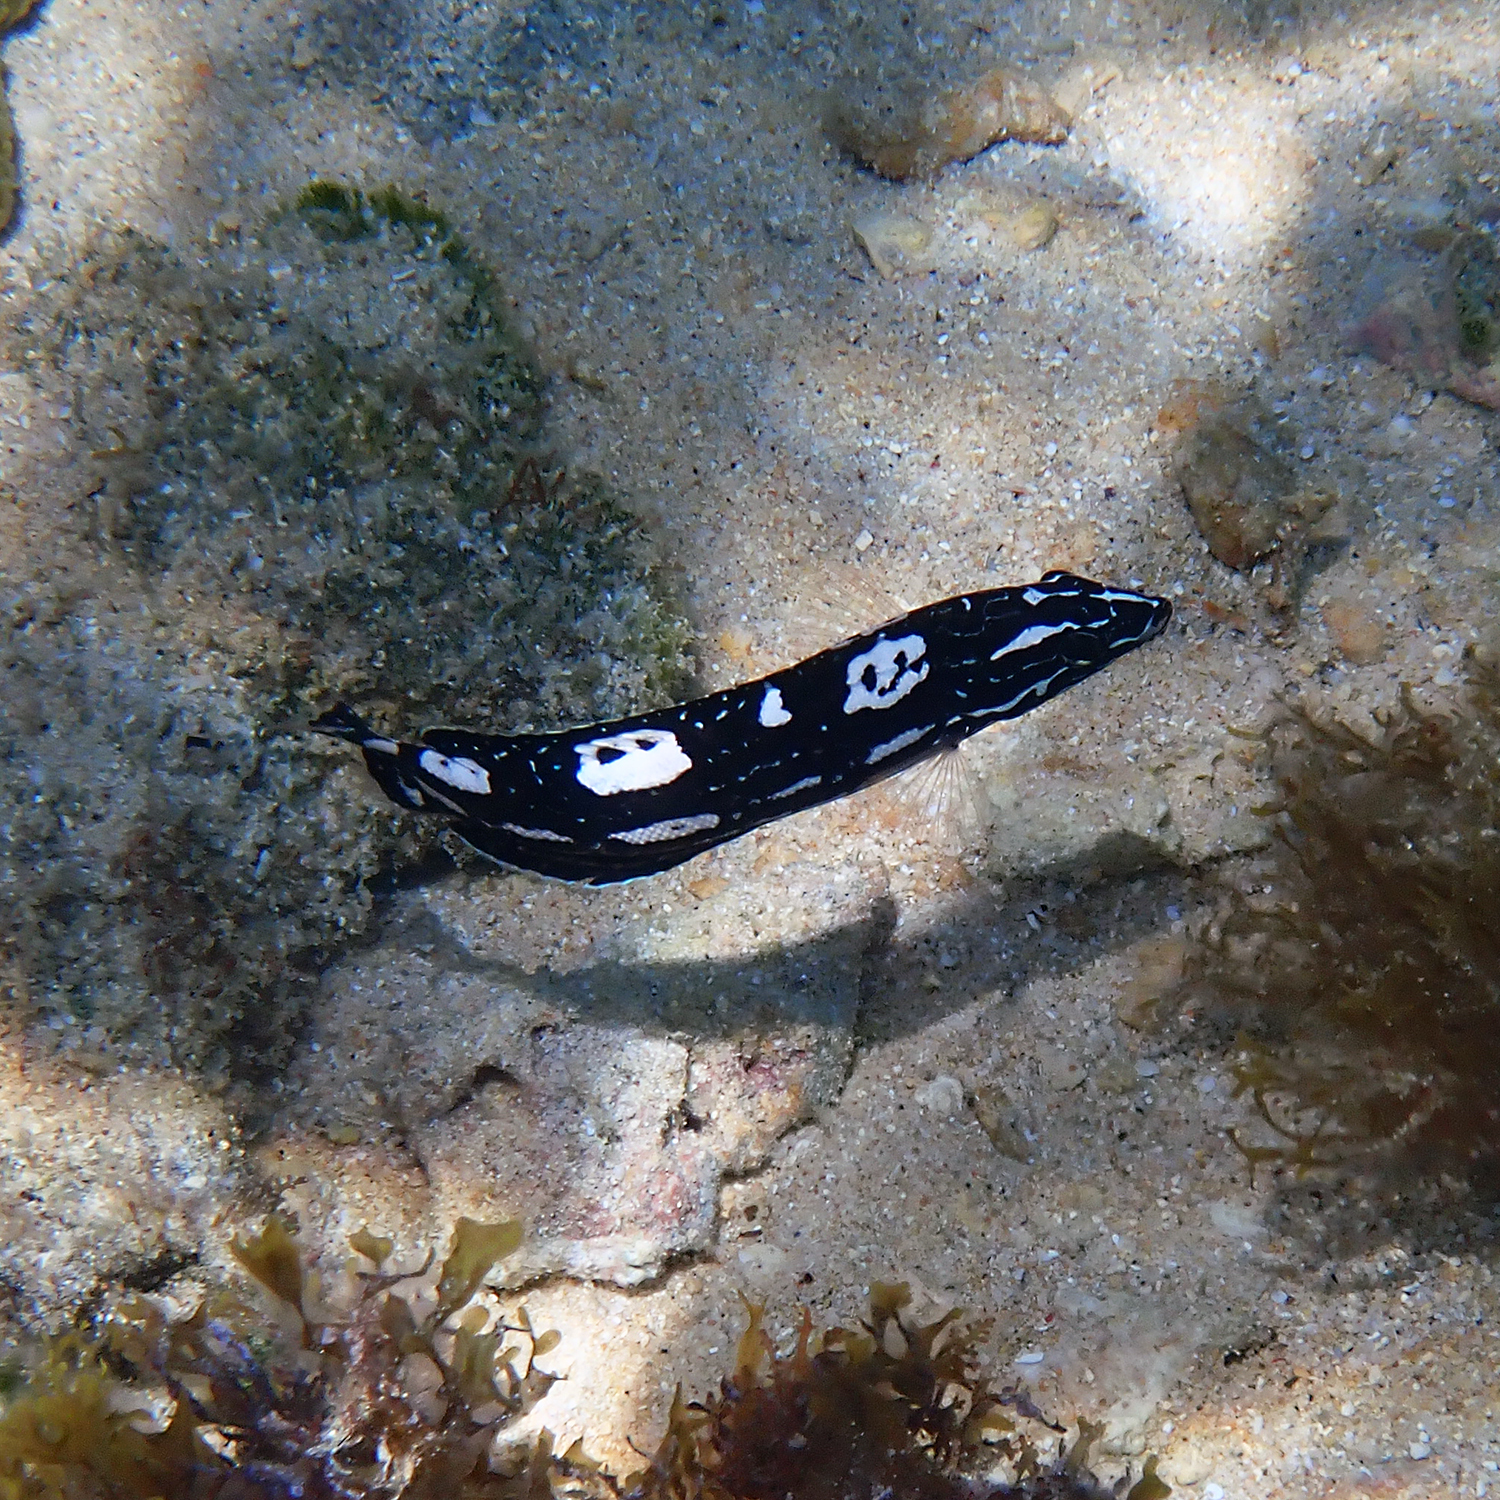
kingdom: Animalia
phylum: Chordata
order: Perciformes
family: Labridae
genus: Coris
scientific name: Coris bulbifrons
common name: Doubleheader
